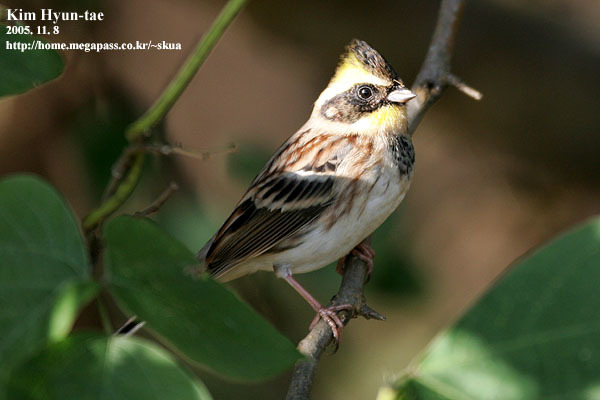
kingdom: Animalia
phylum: Chordata
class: Aves
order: Passeriformes
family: Emberizidae
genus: Emberiza
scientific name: Emberiza elegans
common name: Yellow-throated bunting
